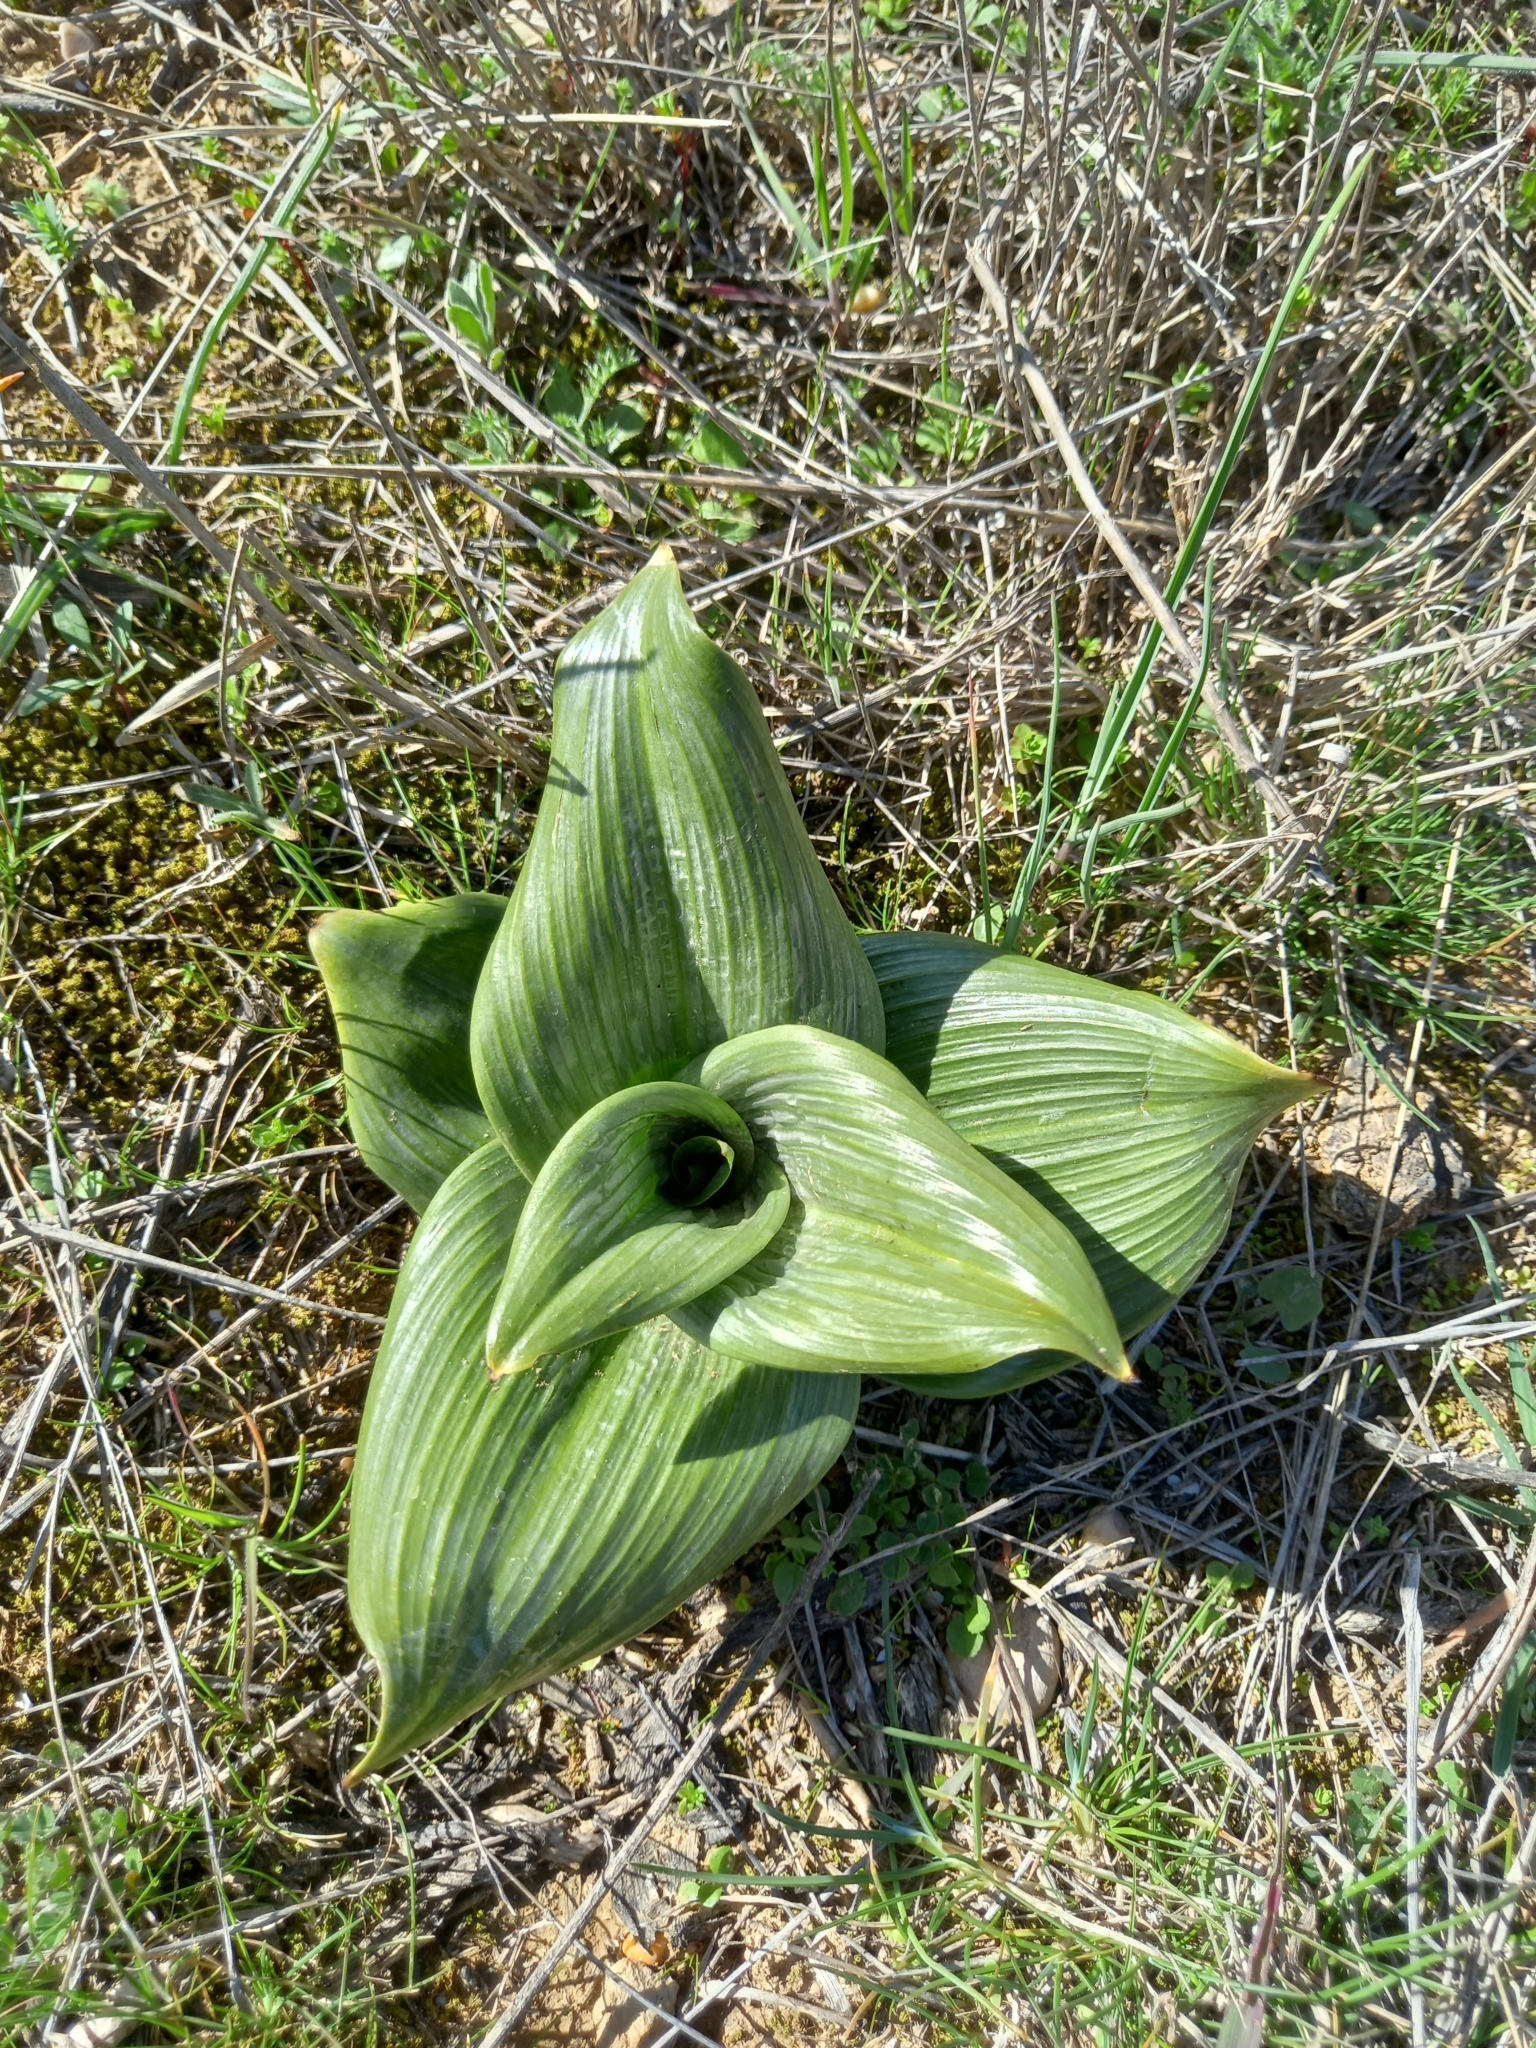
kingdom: Plantae
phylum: Tracheophyta
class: Liliopsida
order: Asparagales
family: Orchidaceae
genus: Himantoglossum
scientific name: Himantoglossum hircinum
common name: Lizard orchid
